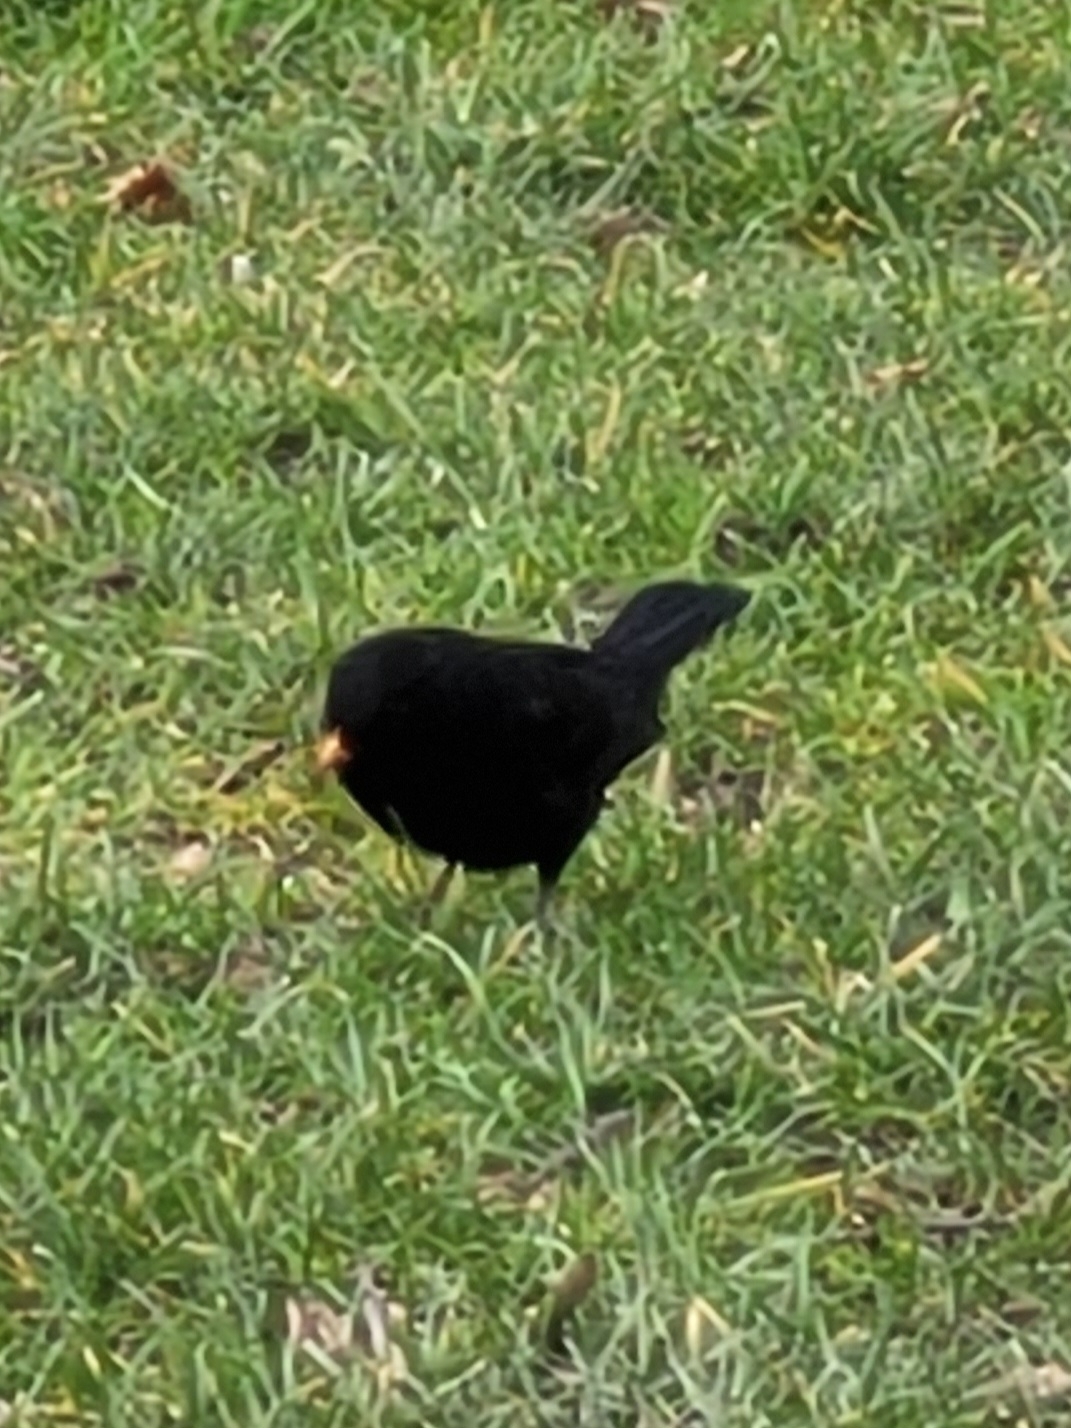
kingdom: Animalia
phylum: Chordata
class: Aves
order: Passeriformes
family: Turdidae
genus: Turdus
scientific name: Turdus merula
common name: Common blackbird
